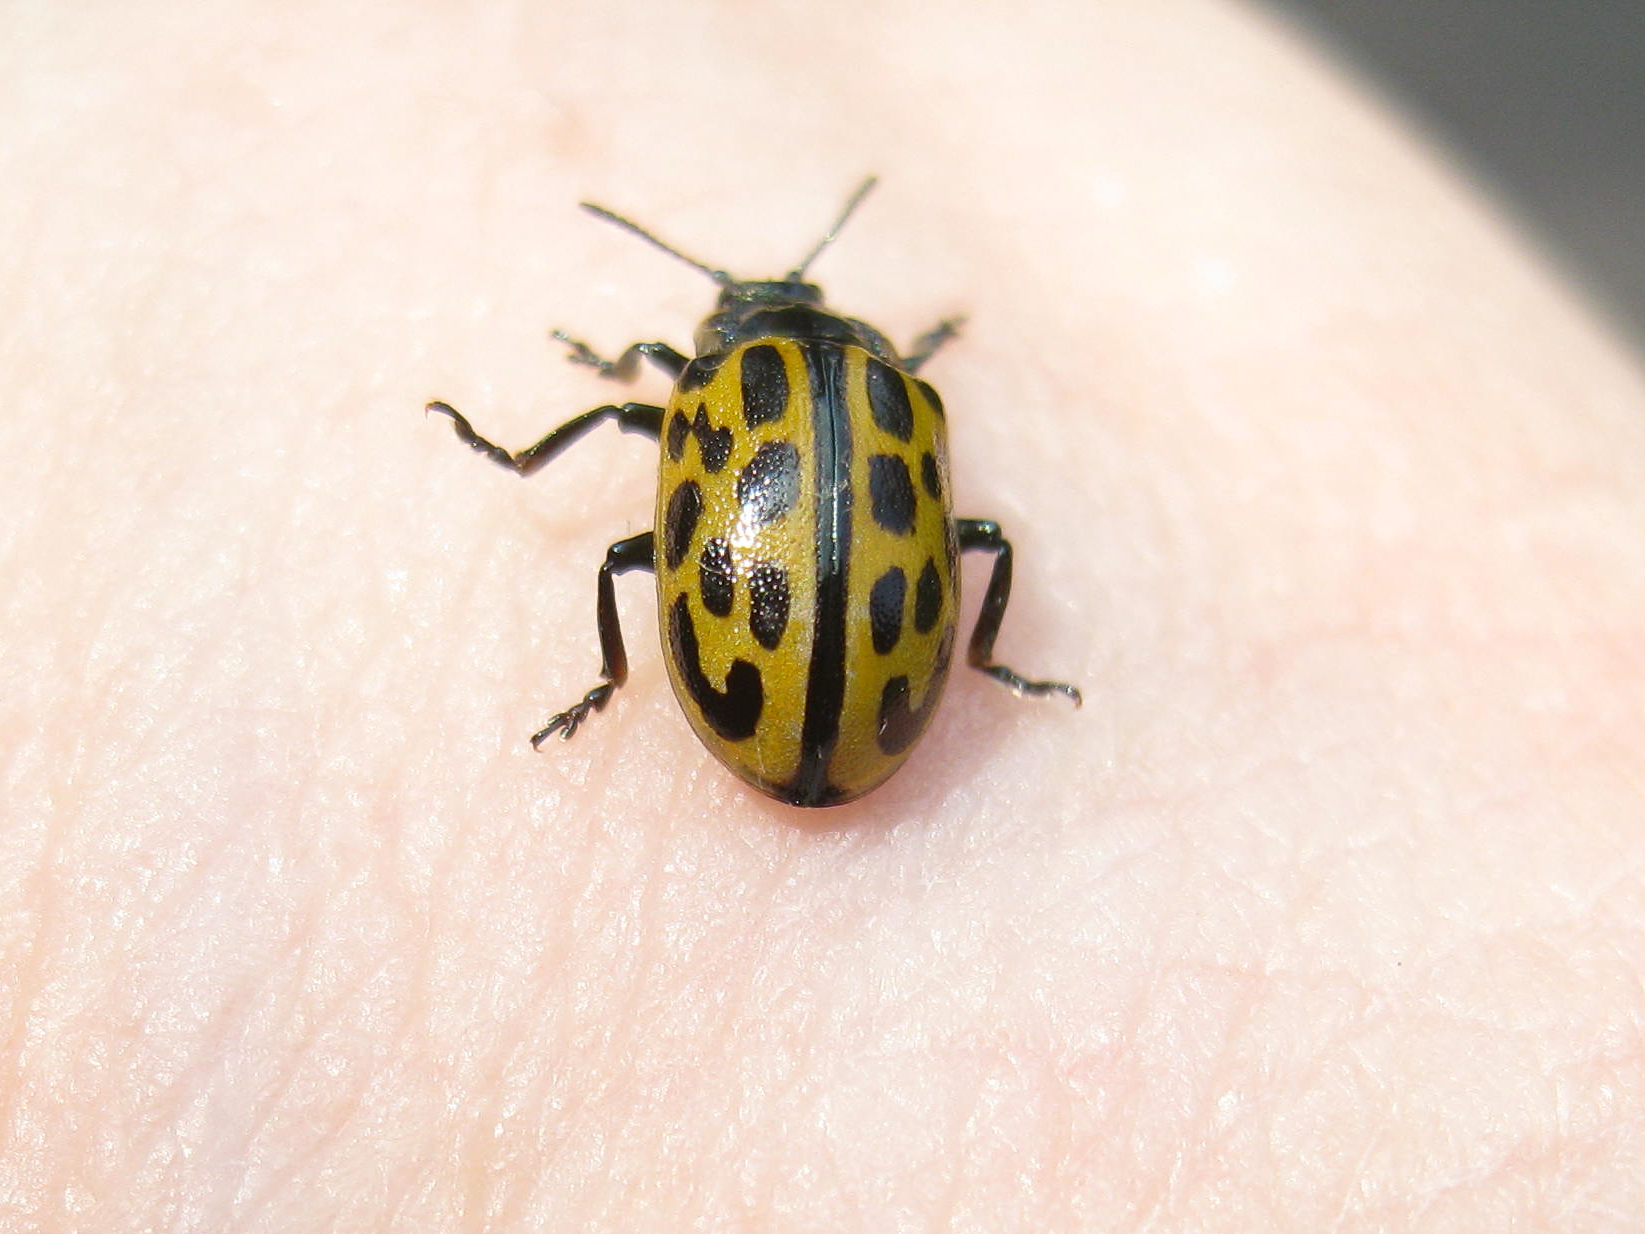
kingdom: Animalia
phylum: Arthropoda
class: Insecta
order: Coleoptera
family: Chrysomelidae
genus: Chrysomela
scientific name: Chrysomela vigintipunctata
